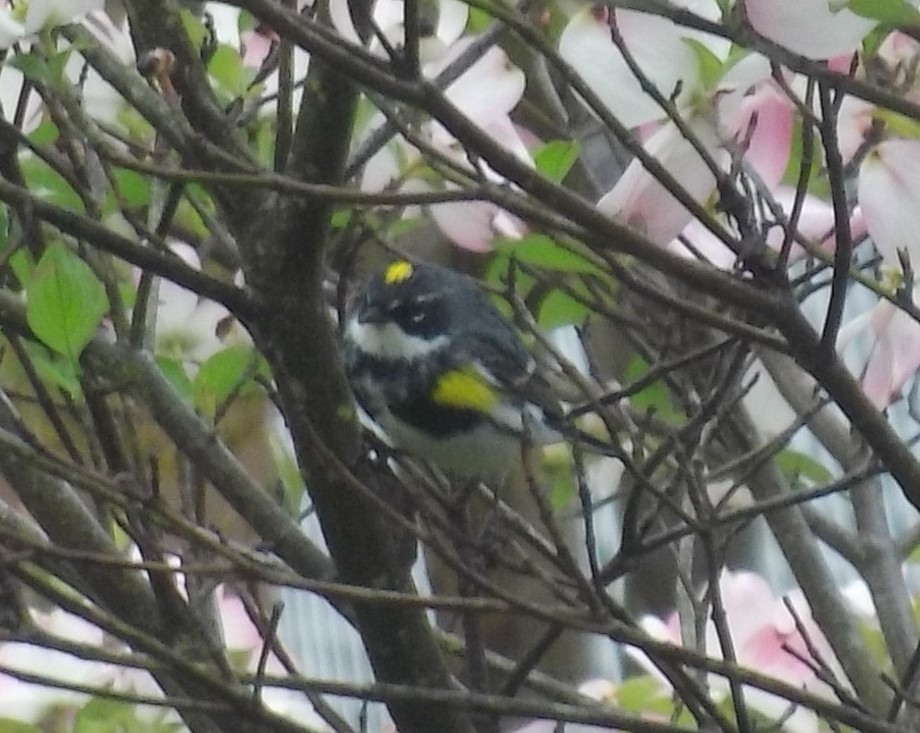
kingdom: Animalia
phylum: Chordata
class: Aves
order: Passeriformes
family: Parulidae
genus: Setophaga
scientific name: Setophaga coronata
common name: Myrtle warbler
